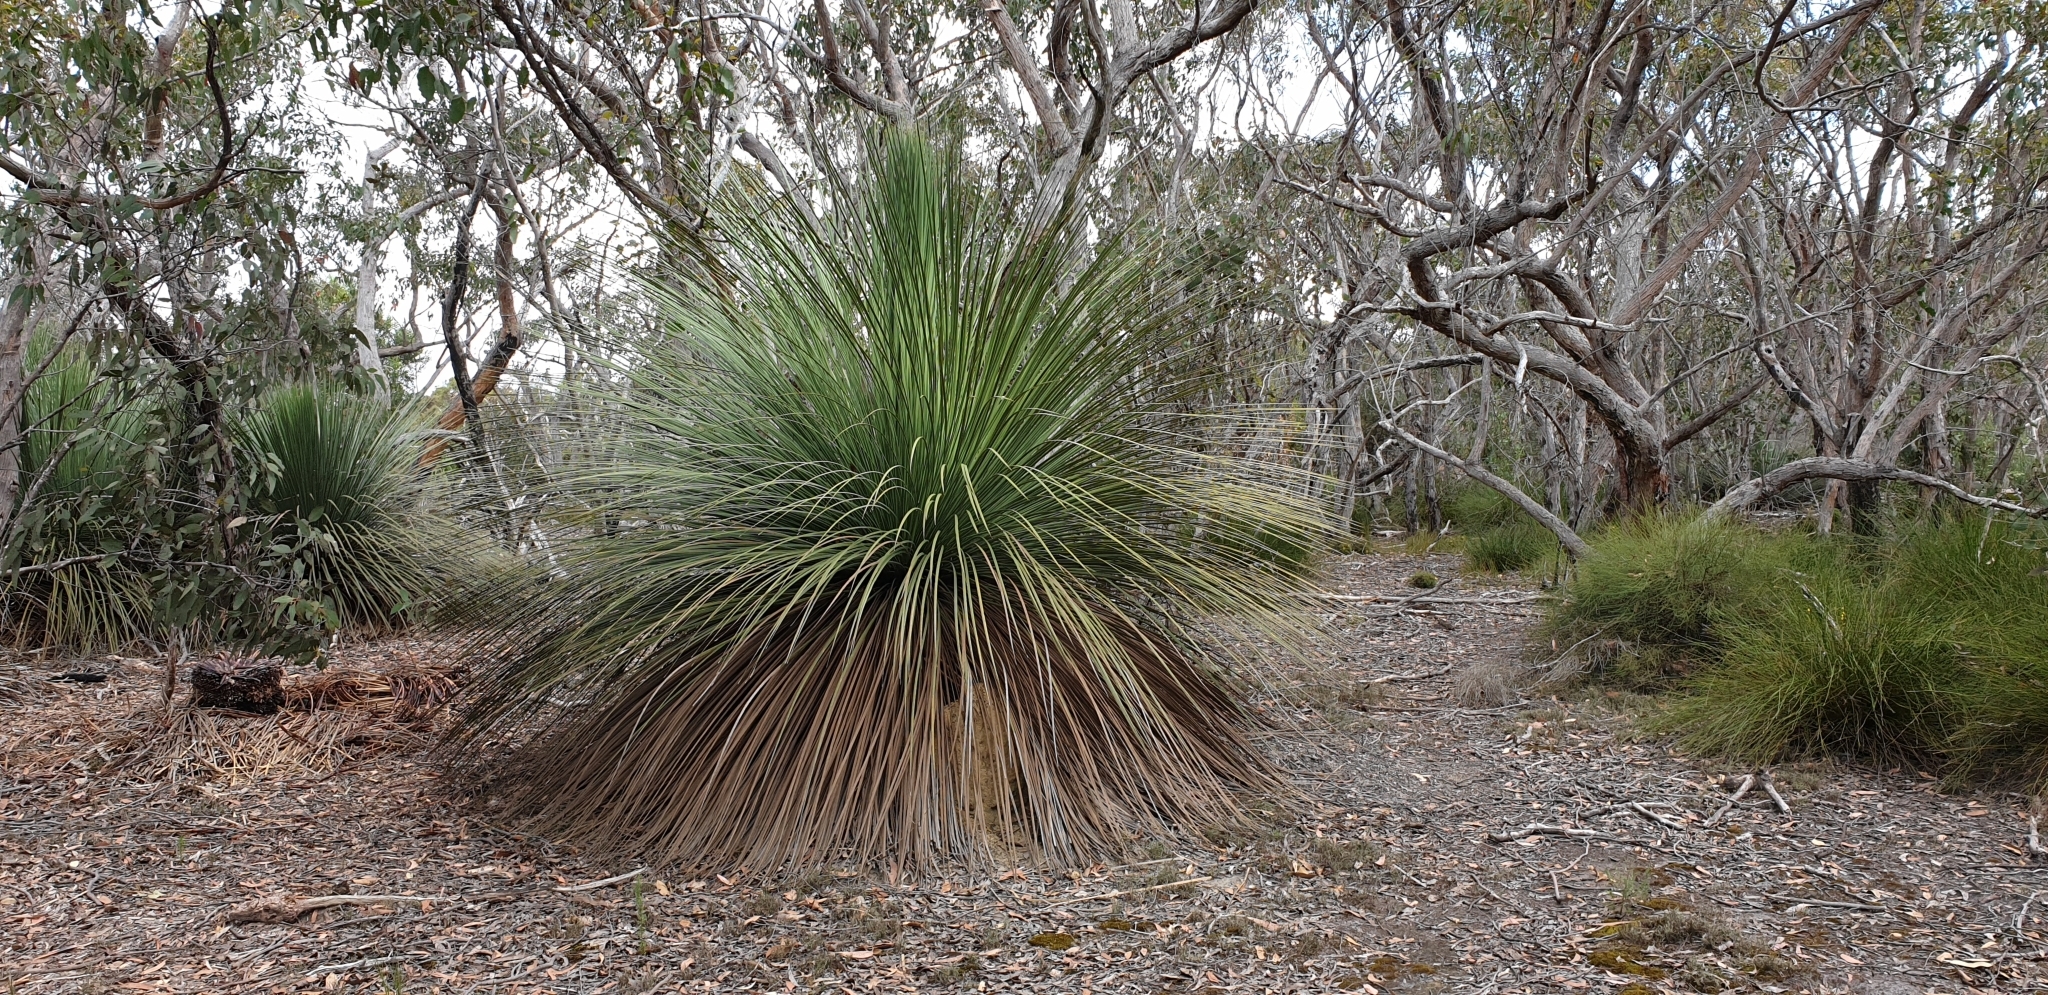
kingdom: Plantae
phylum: Tracheophyta
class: Liliopsida
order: Asparagales
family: Asphodelaceae
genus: Xanthorrhoea
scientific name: Xanthorrhoea semiplana
